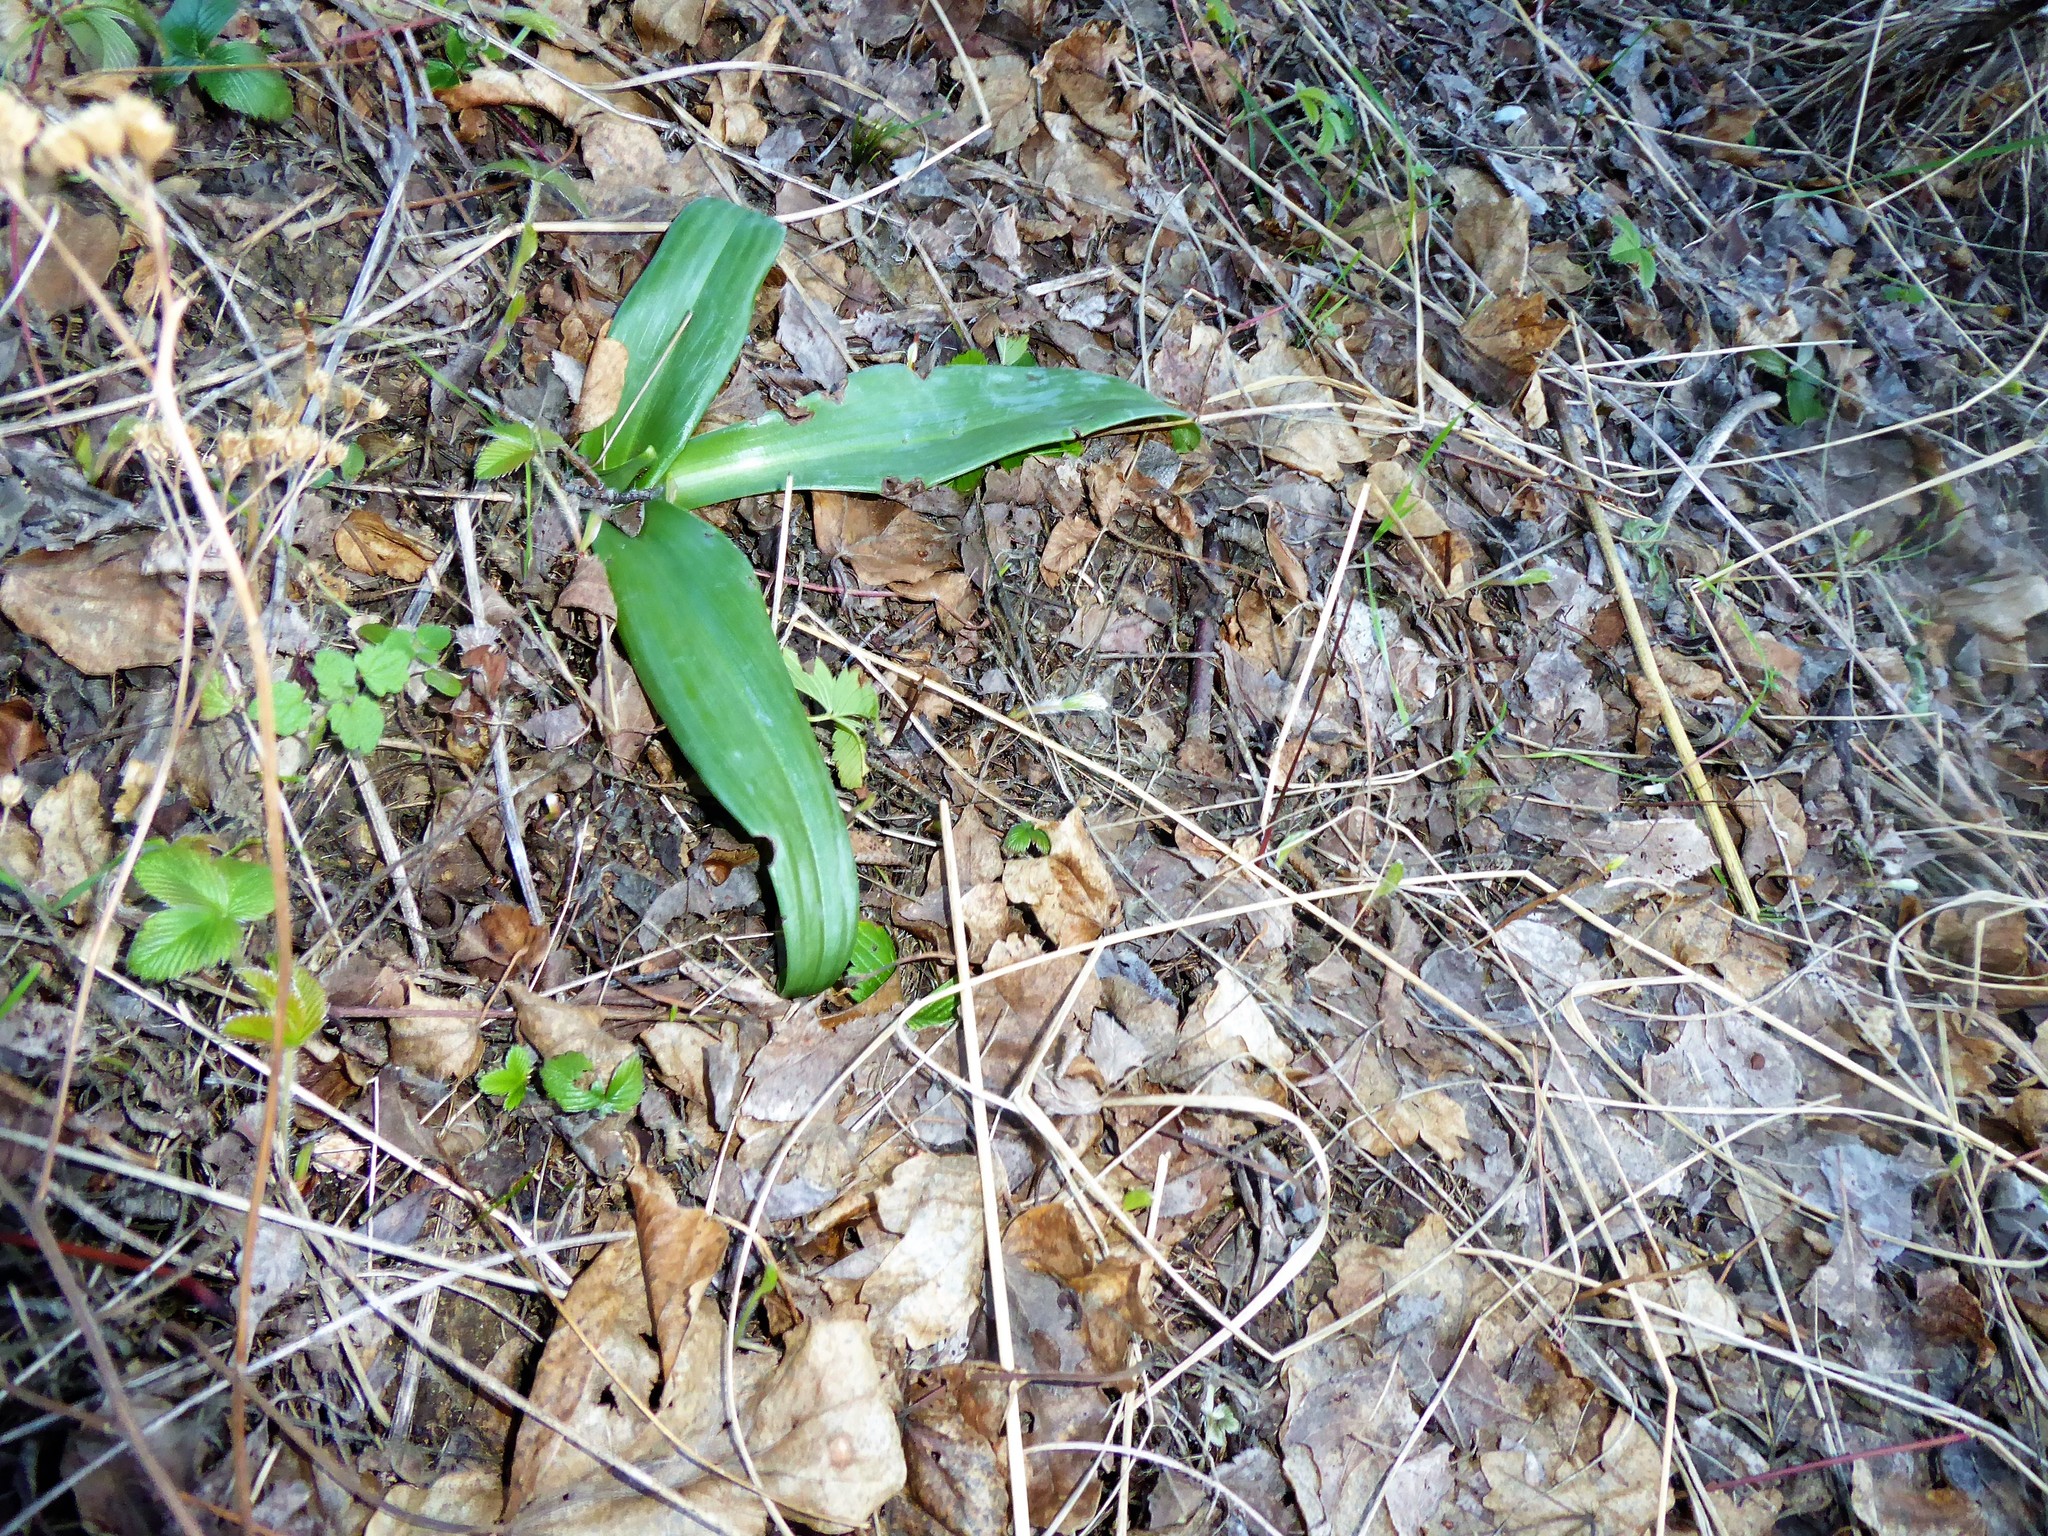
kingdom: Plantae
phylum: Tracheophyta
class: Liliopsida
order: Asparagales
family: Orchidaceae
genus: Himantoglossum
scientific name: Himantoglossum adriaticum
